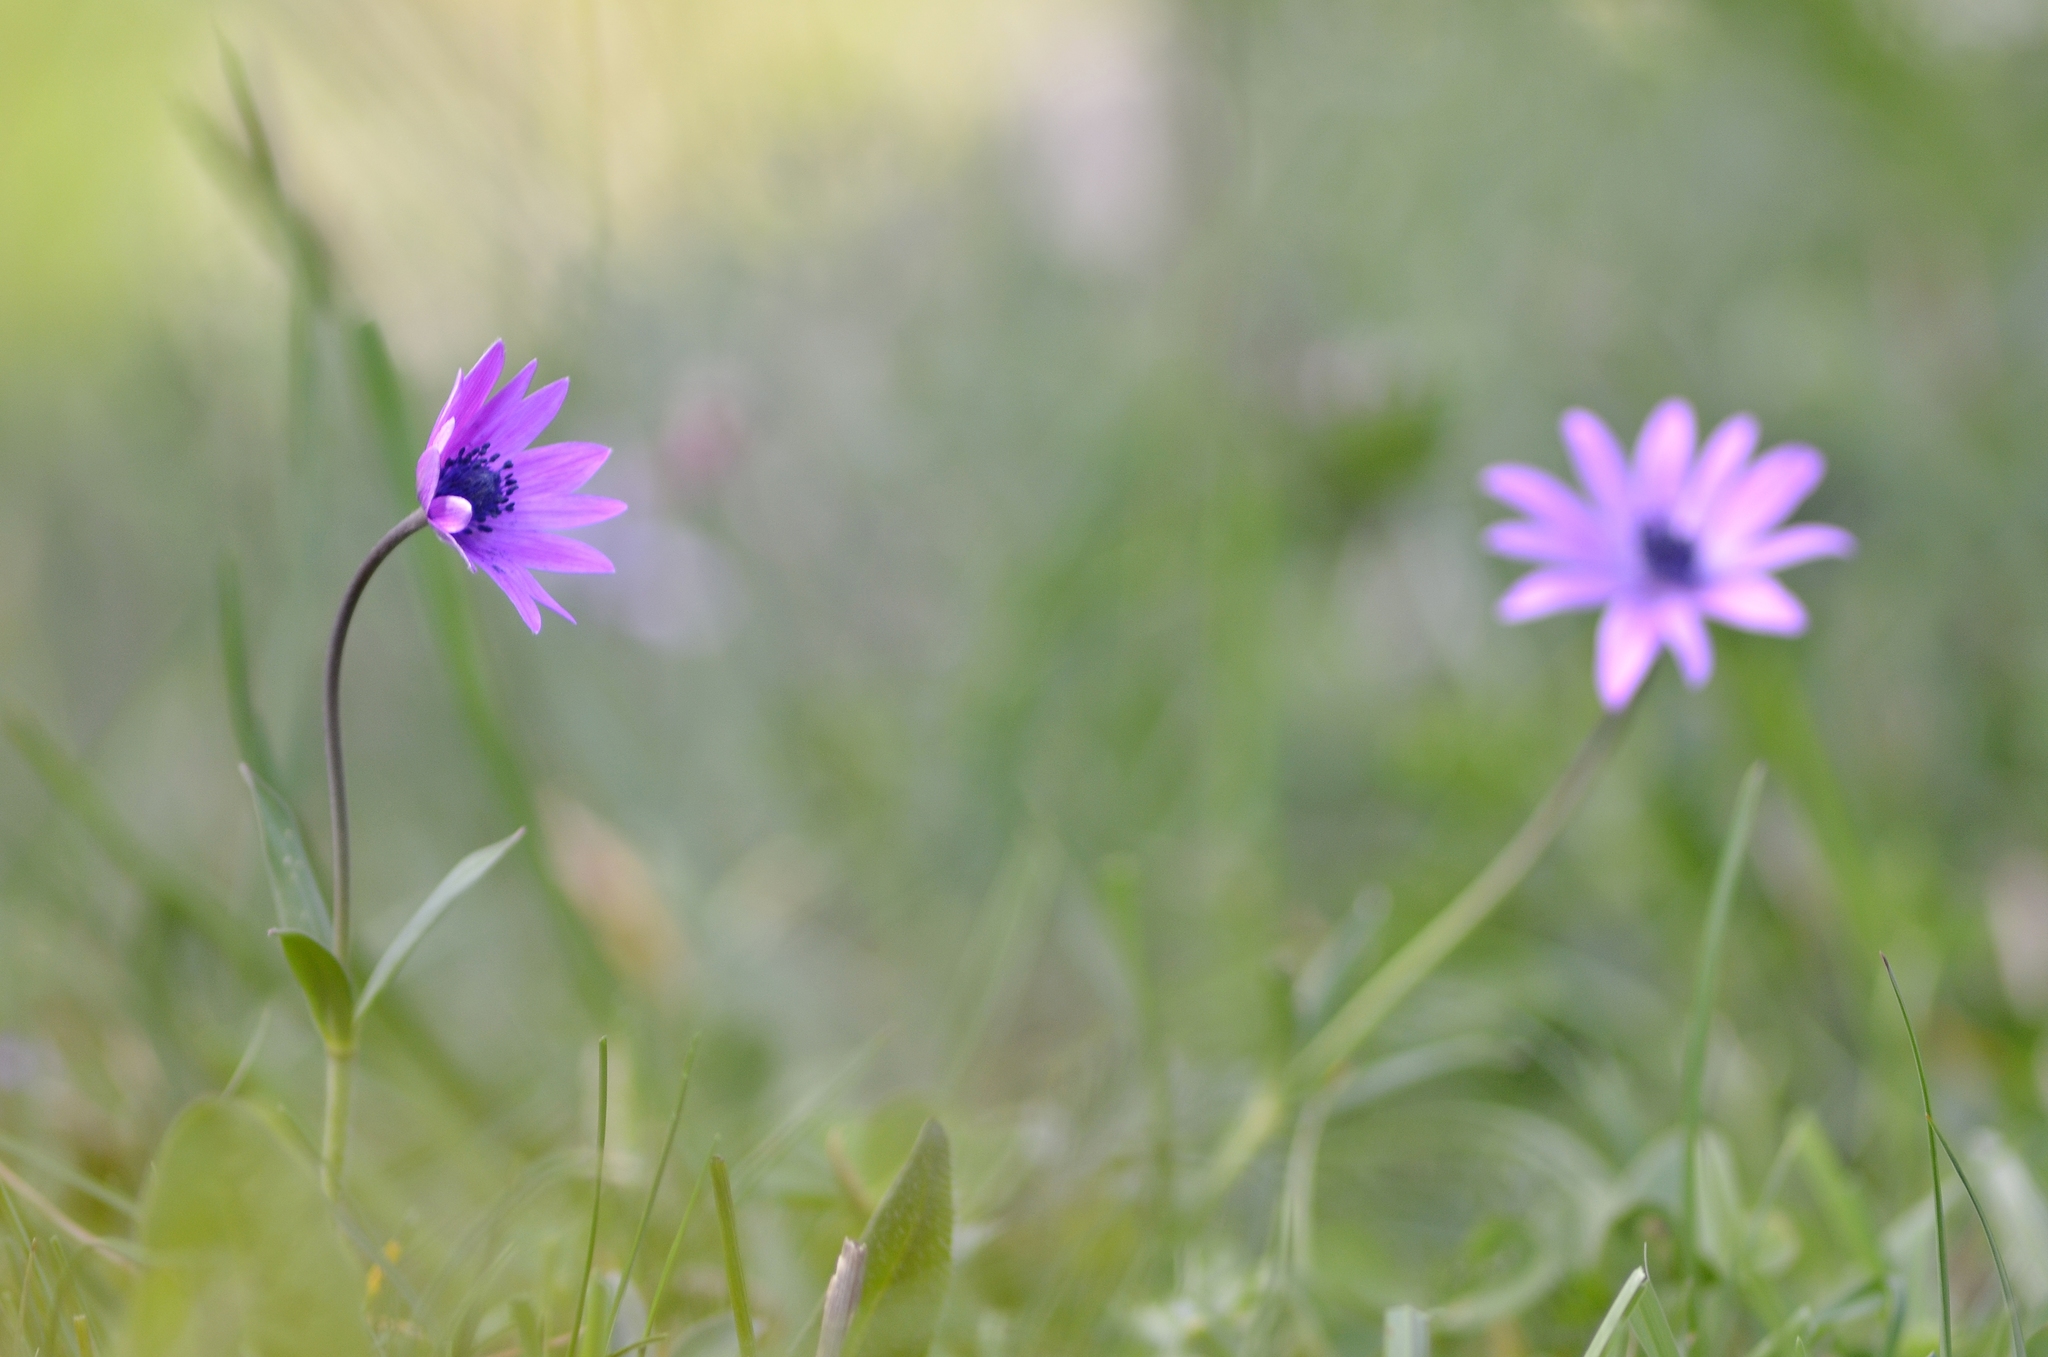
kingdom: Plantae
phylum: Tracheophyta
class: Magnoliopsida
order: Ranunculales
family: Ranunculaceae
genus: Anemone
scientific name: Anemone hortensis
